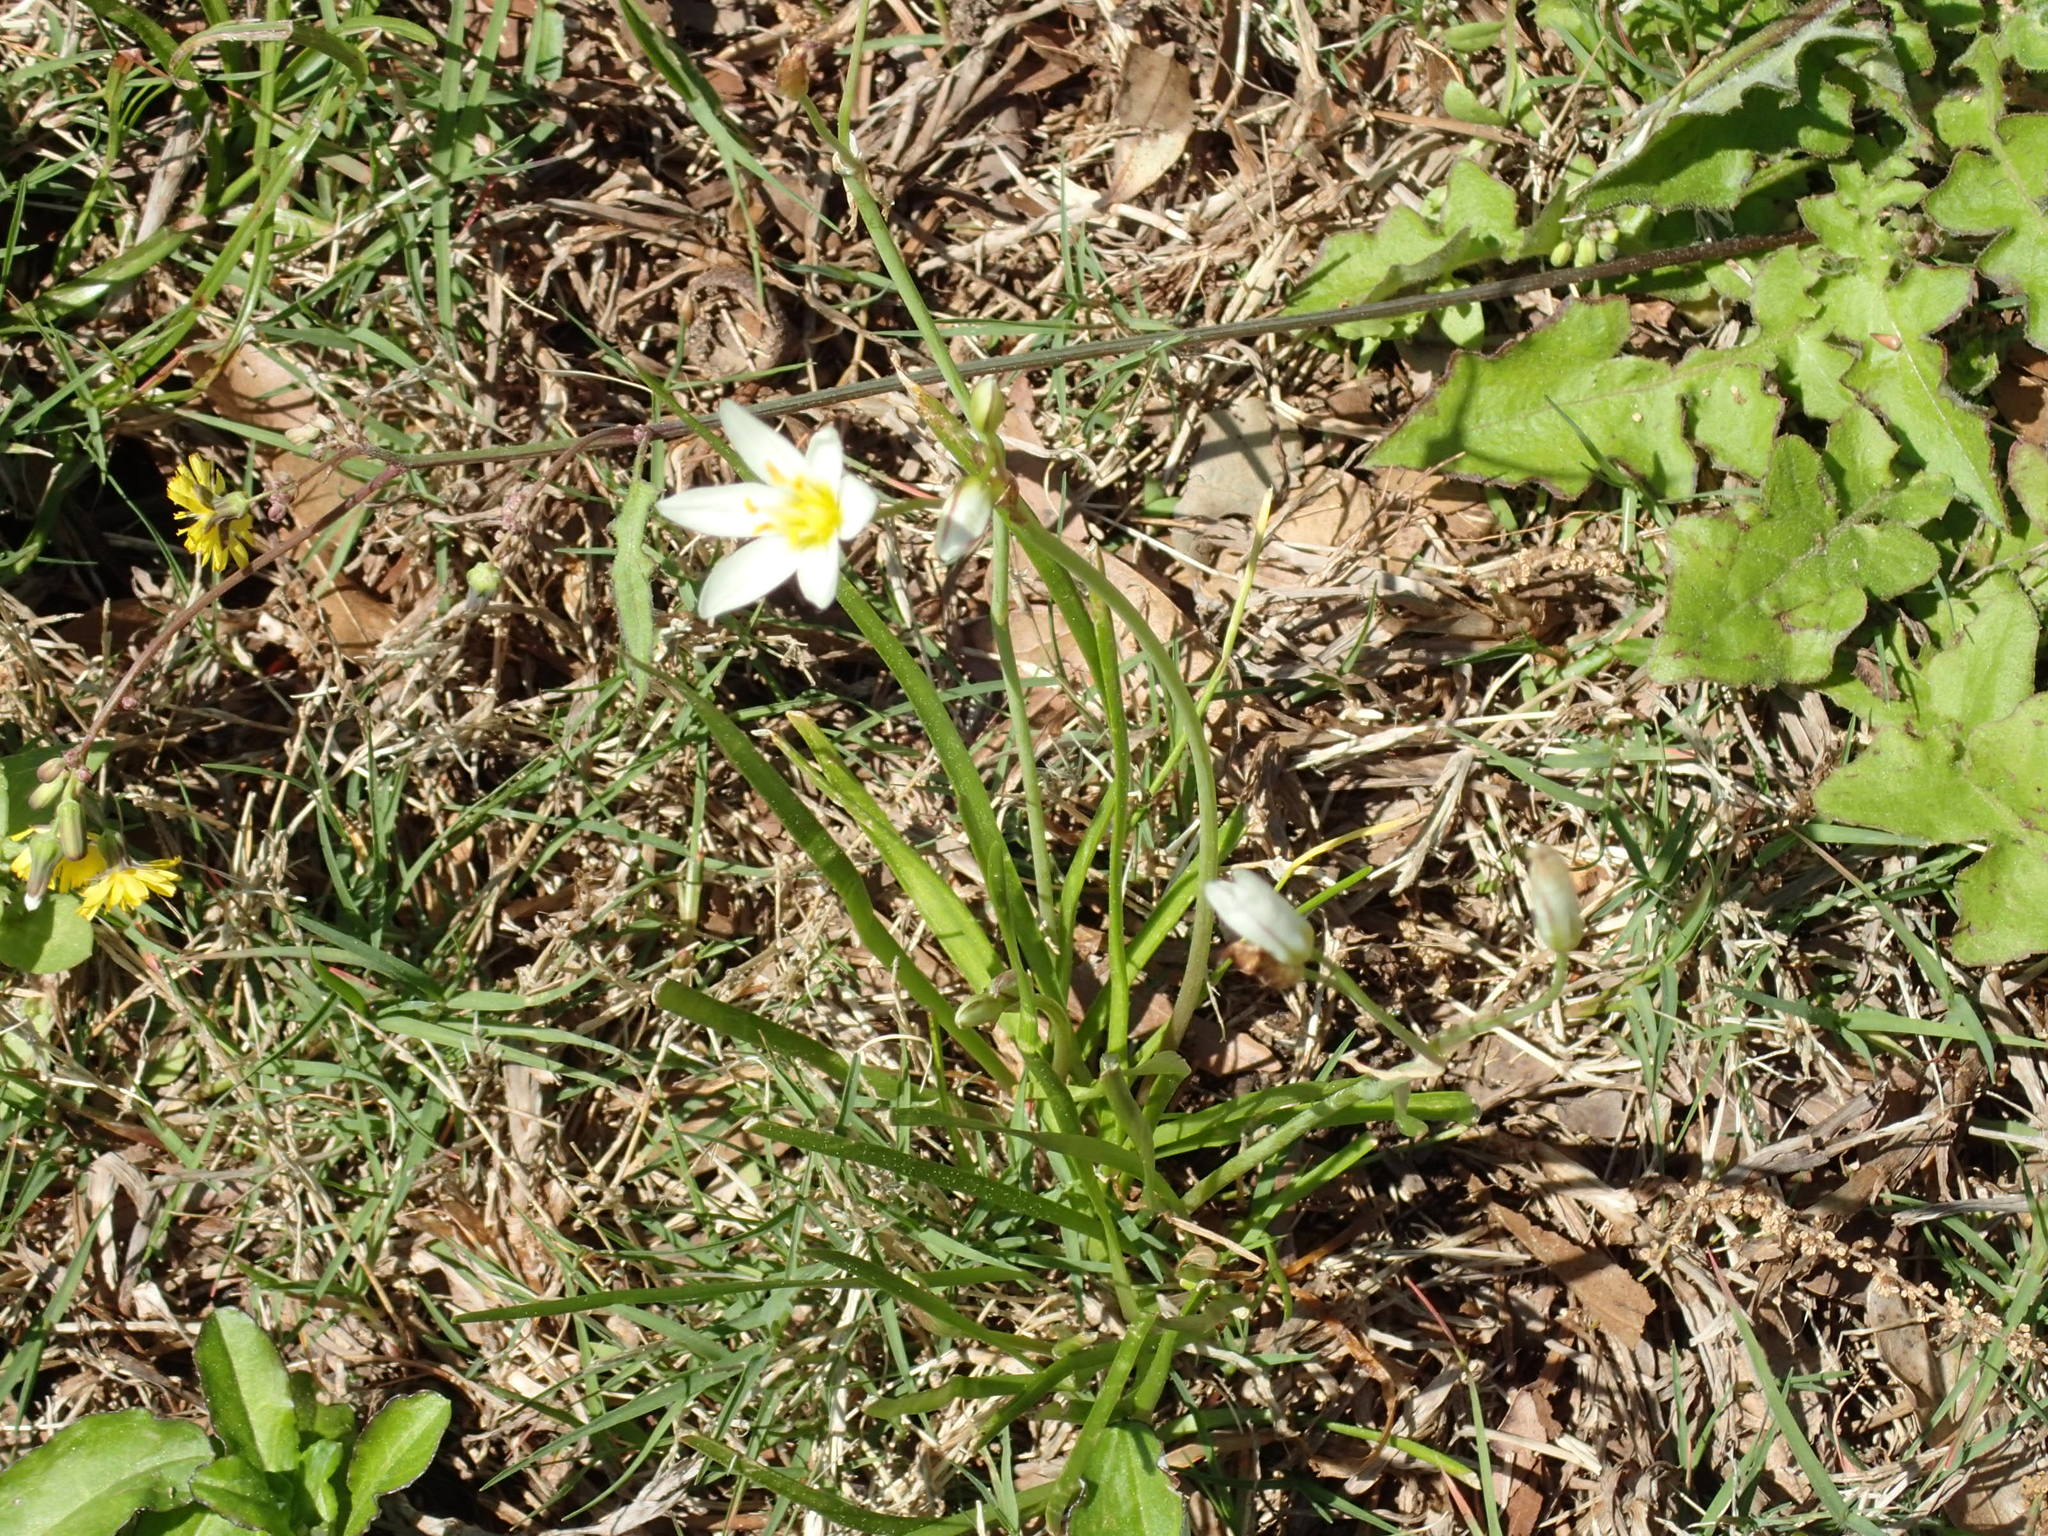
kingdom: Plantae
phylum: Tracheophyta
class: Liliopsida
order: Asparagales
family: Amaryllidaceae
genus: Nothoscordum
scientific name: Nothoscordum bivalve
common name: Crow-poison
